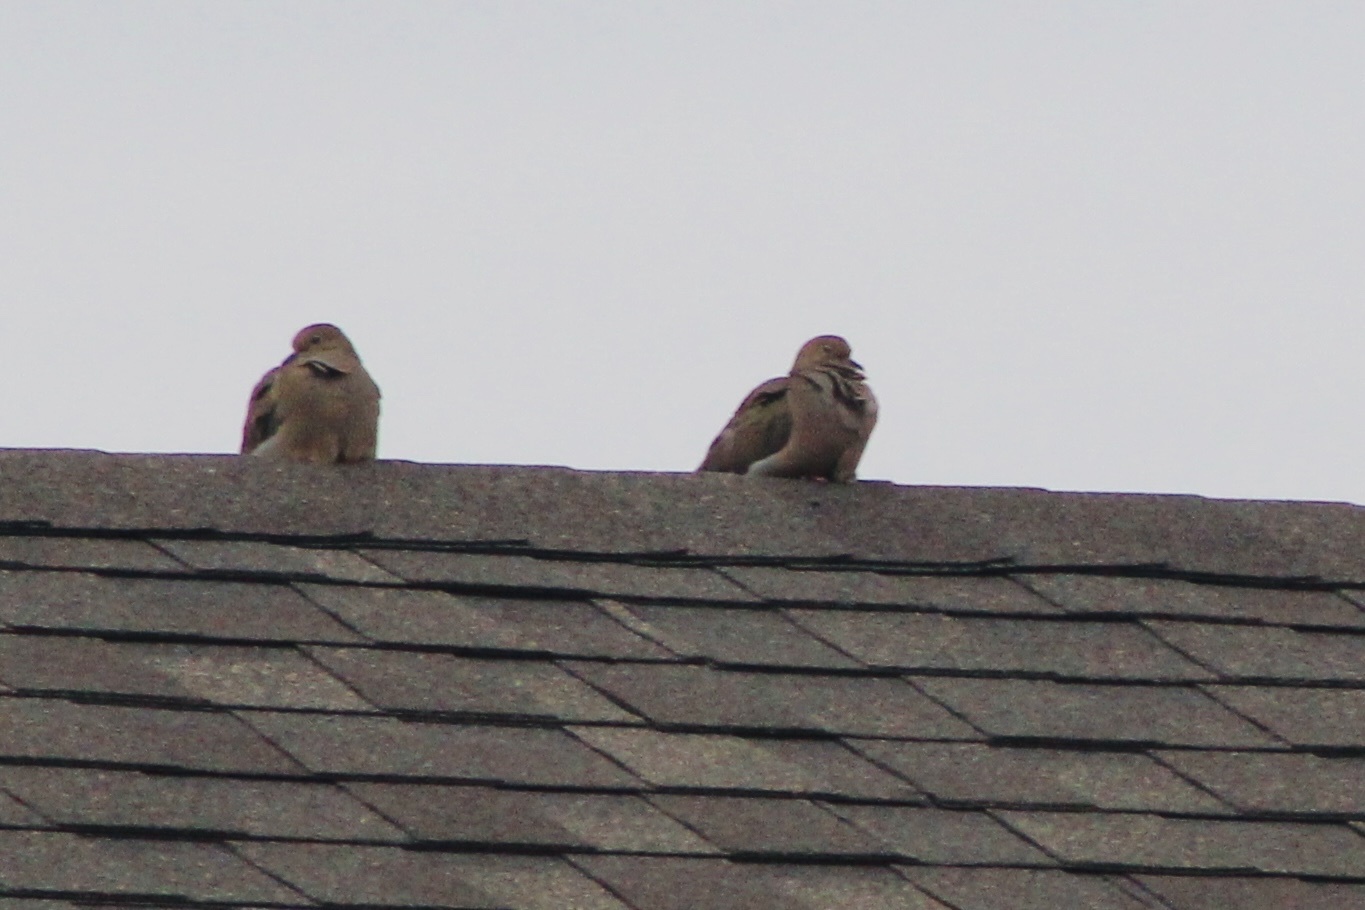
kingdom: Animalia
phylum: Chordata
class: Aves
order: Columbiformes
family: Columbidae
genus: Zenaida
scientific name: Zenaida macroura
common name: Mourning dove
